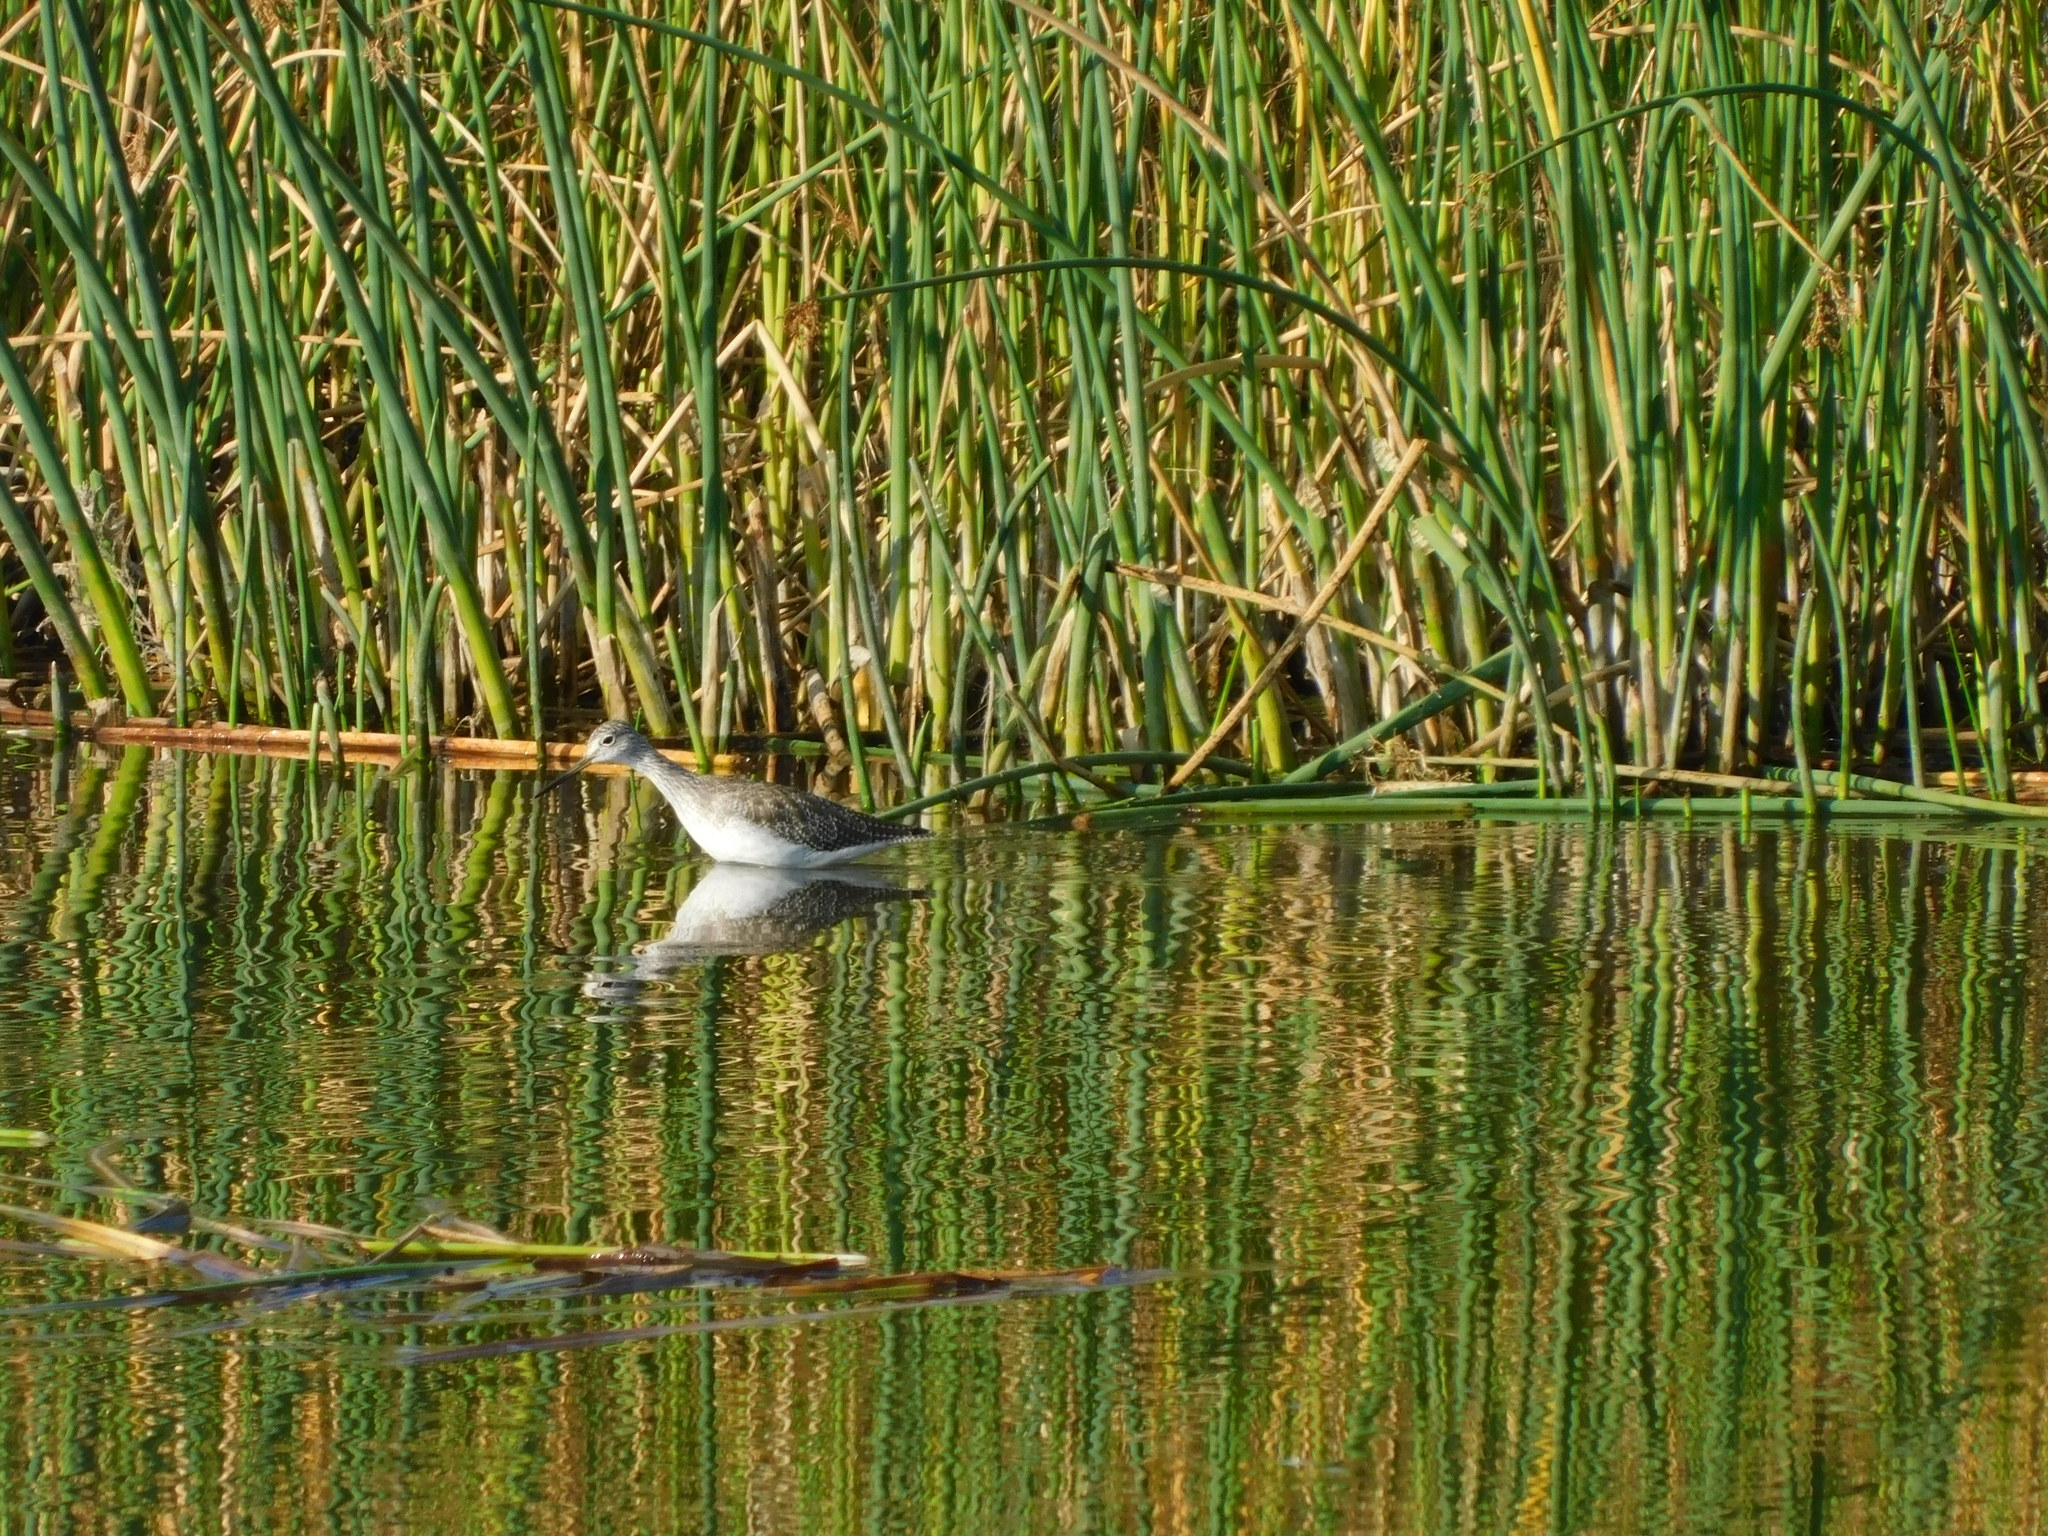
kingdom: Animalia
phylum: Chordata
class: Aves
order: Charadriiformes
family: Scolopacidae
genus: Tringa
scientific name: Tringa melanoleuca
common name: Greater yellowlegs
